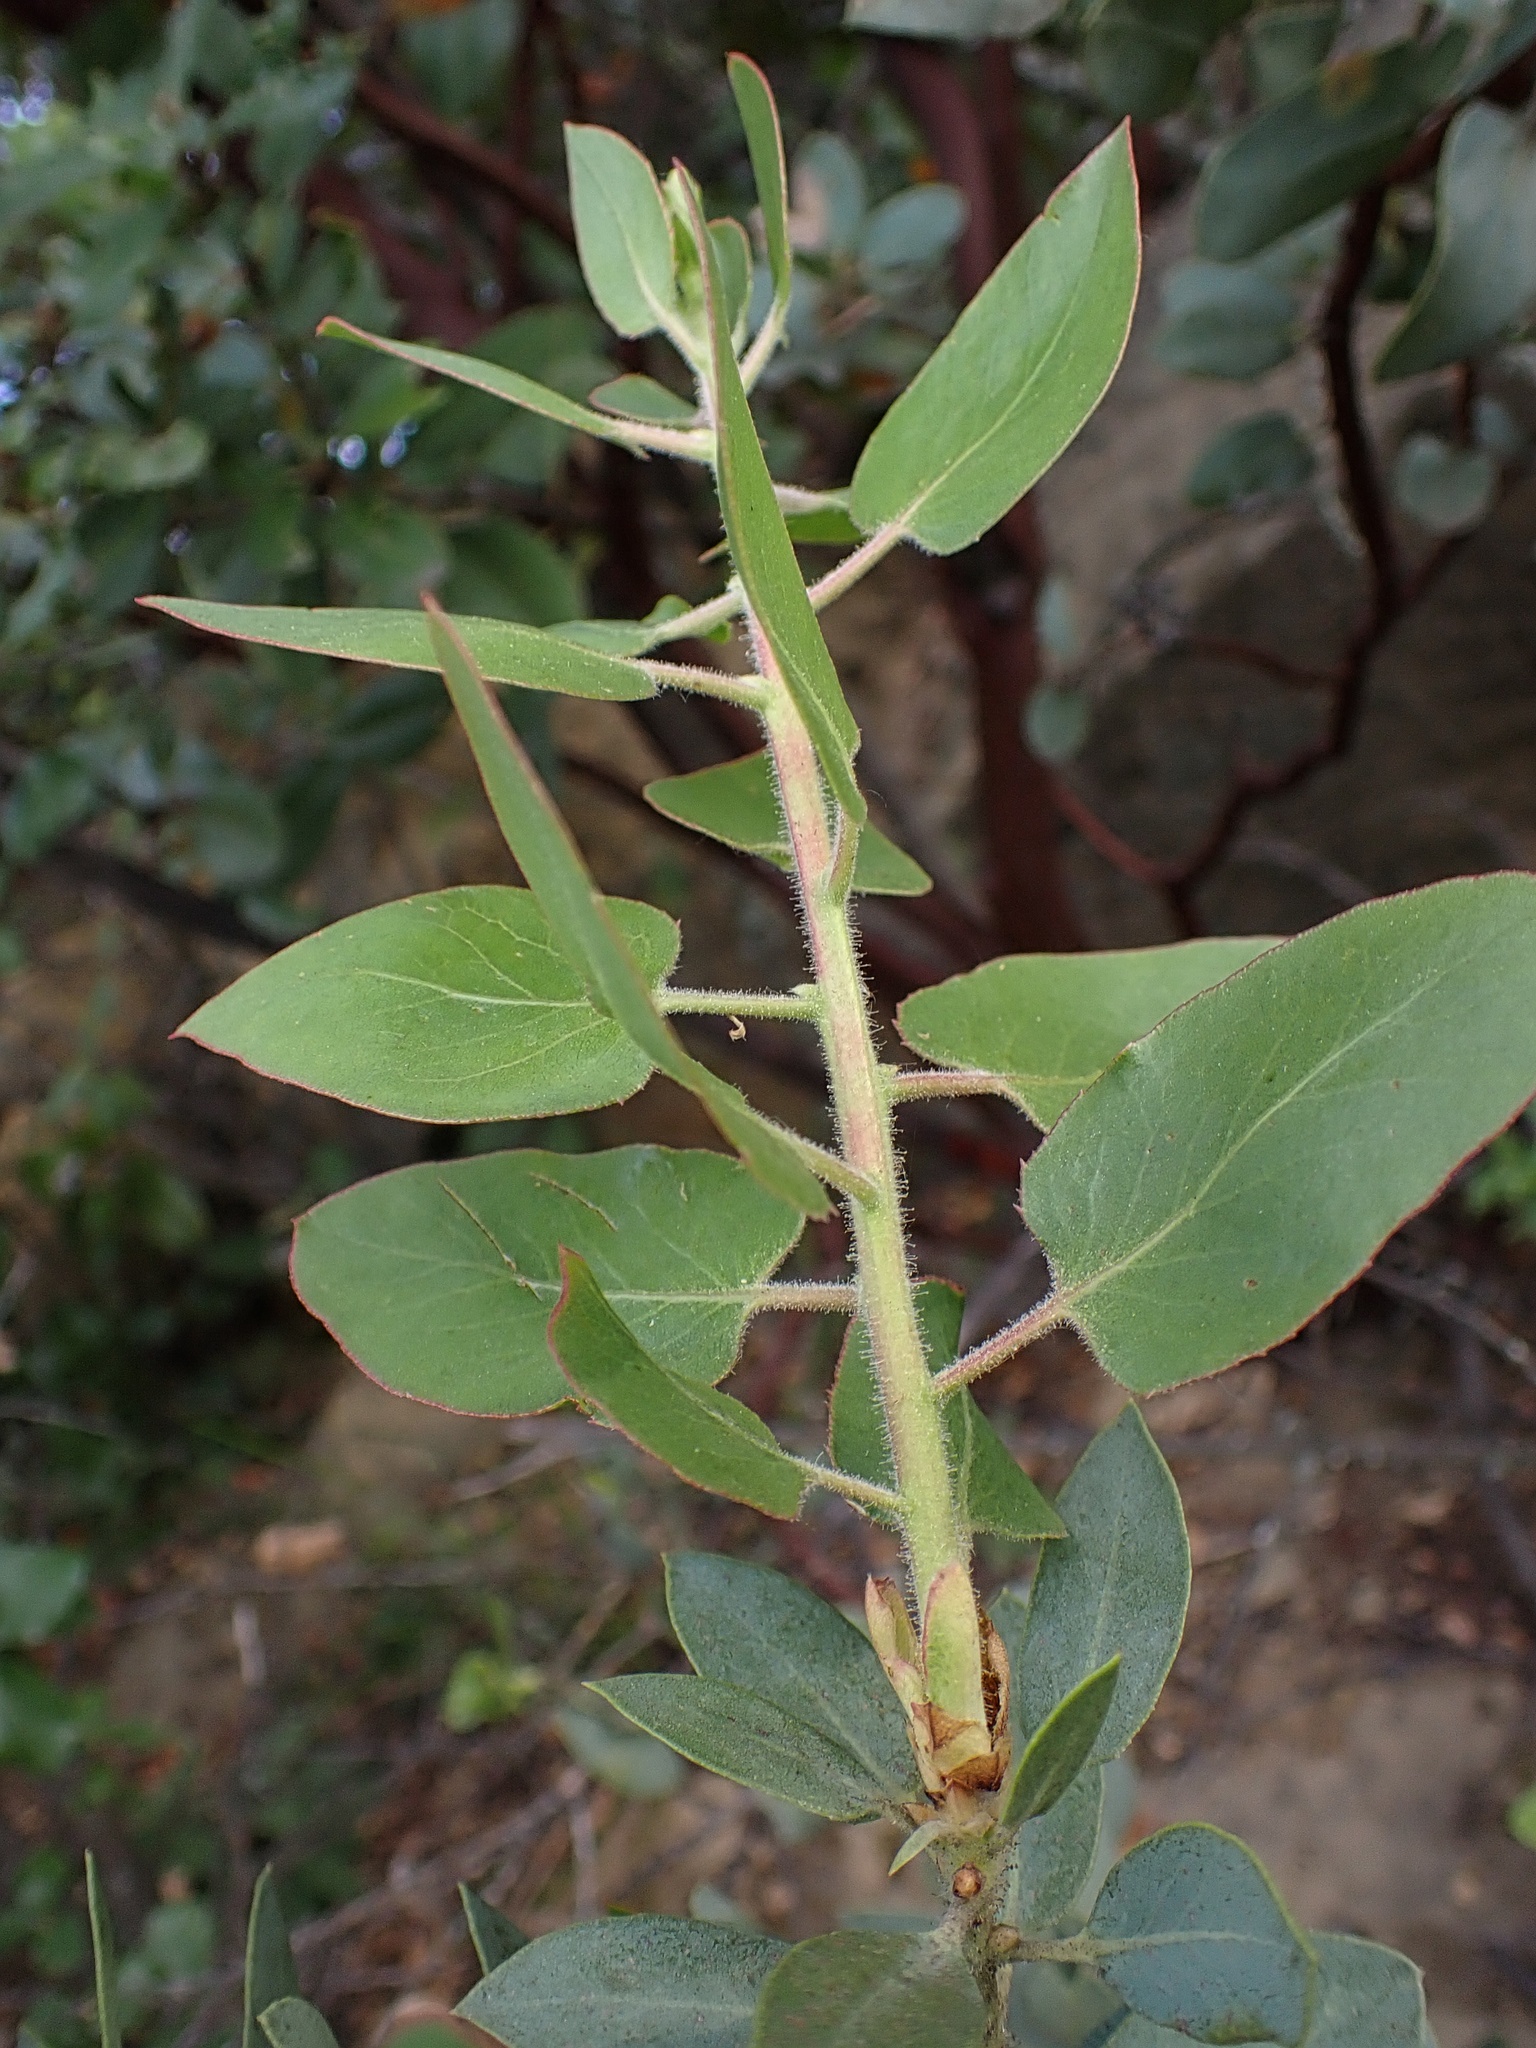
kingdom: Plantae
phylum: Tracheophyta
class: Magnoliopsida
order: Ericales
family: Ericaceae
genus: Arctostaphylos
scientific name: Arctostaphylos glauca
